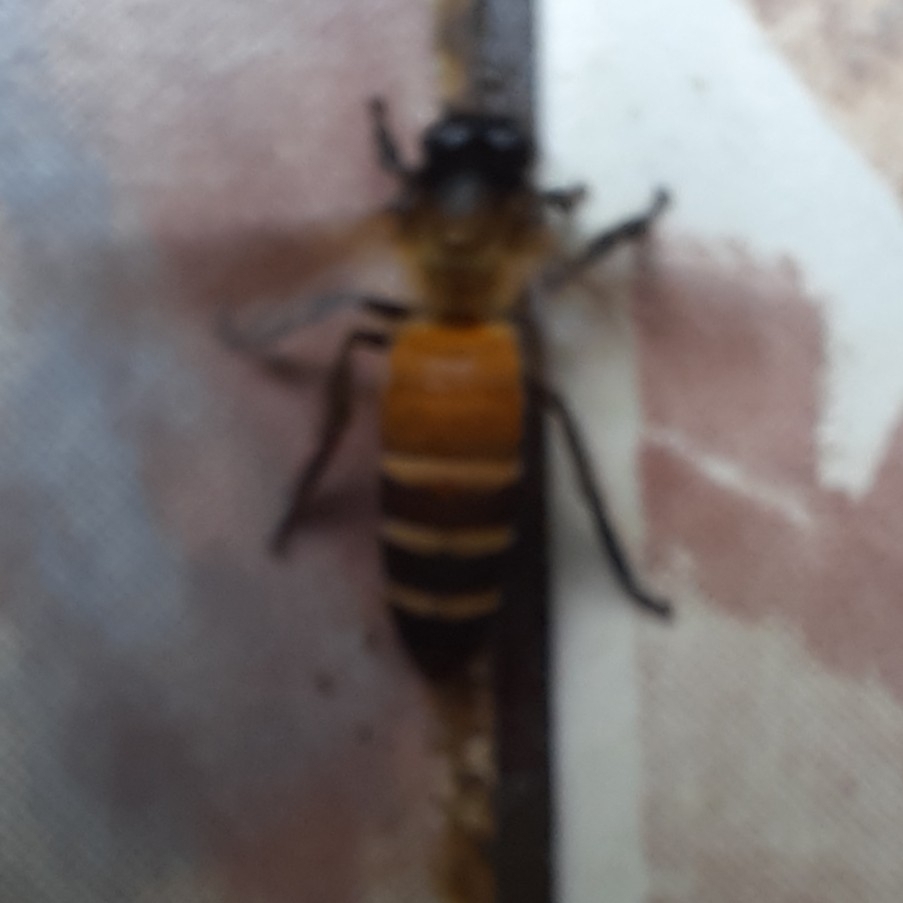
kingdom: Animalia
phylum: Arthropoda
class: Insecta
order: Hymenoptera
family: Apidae
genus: Apis
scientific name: Apis dorsata
